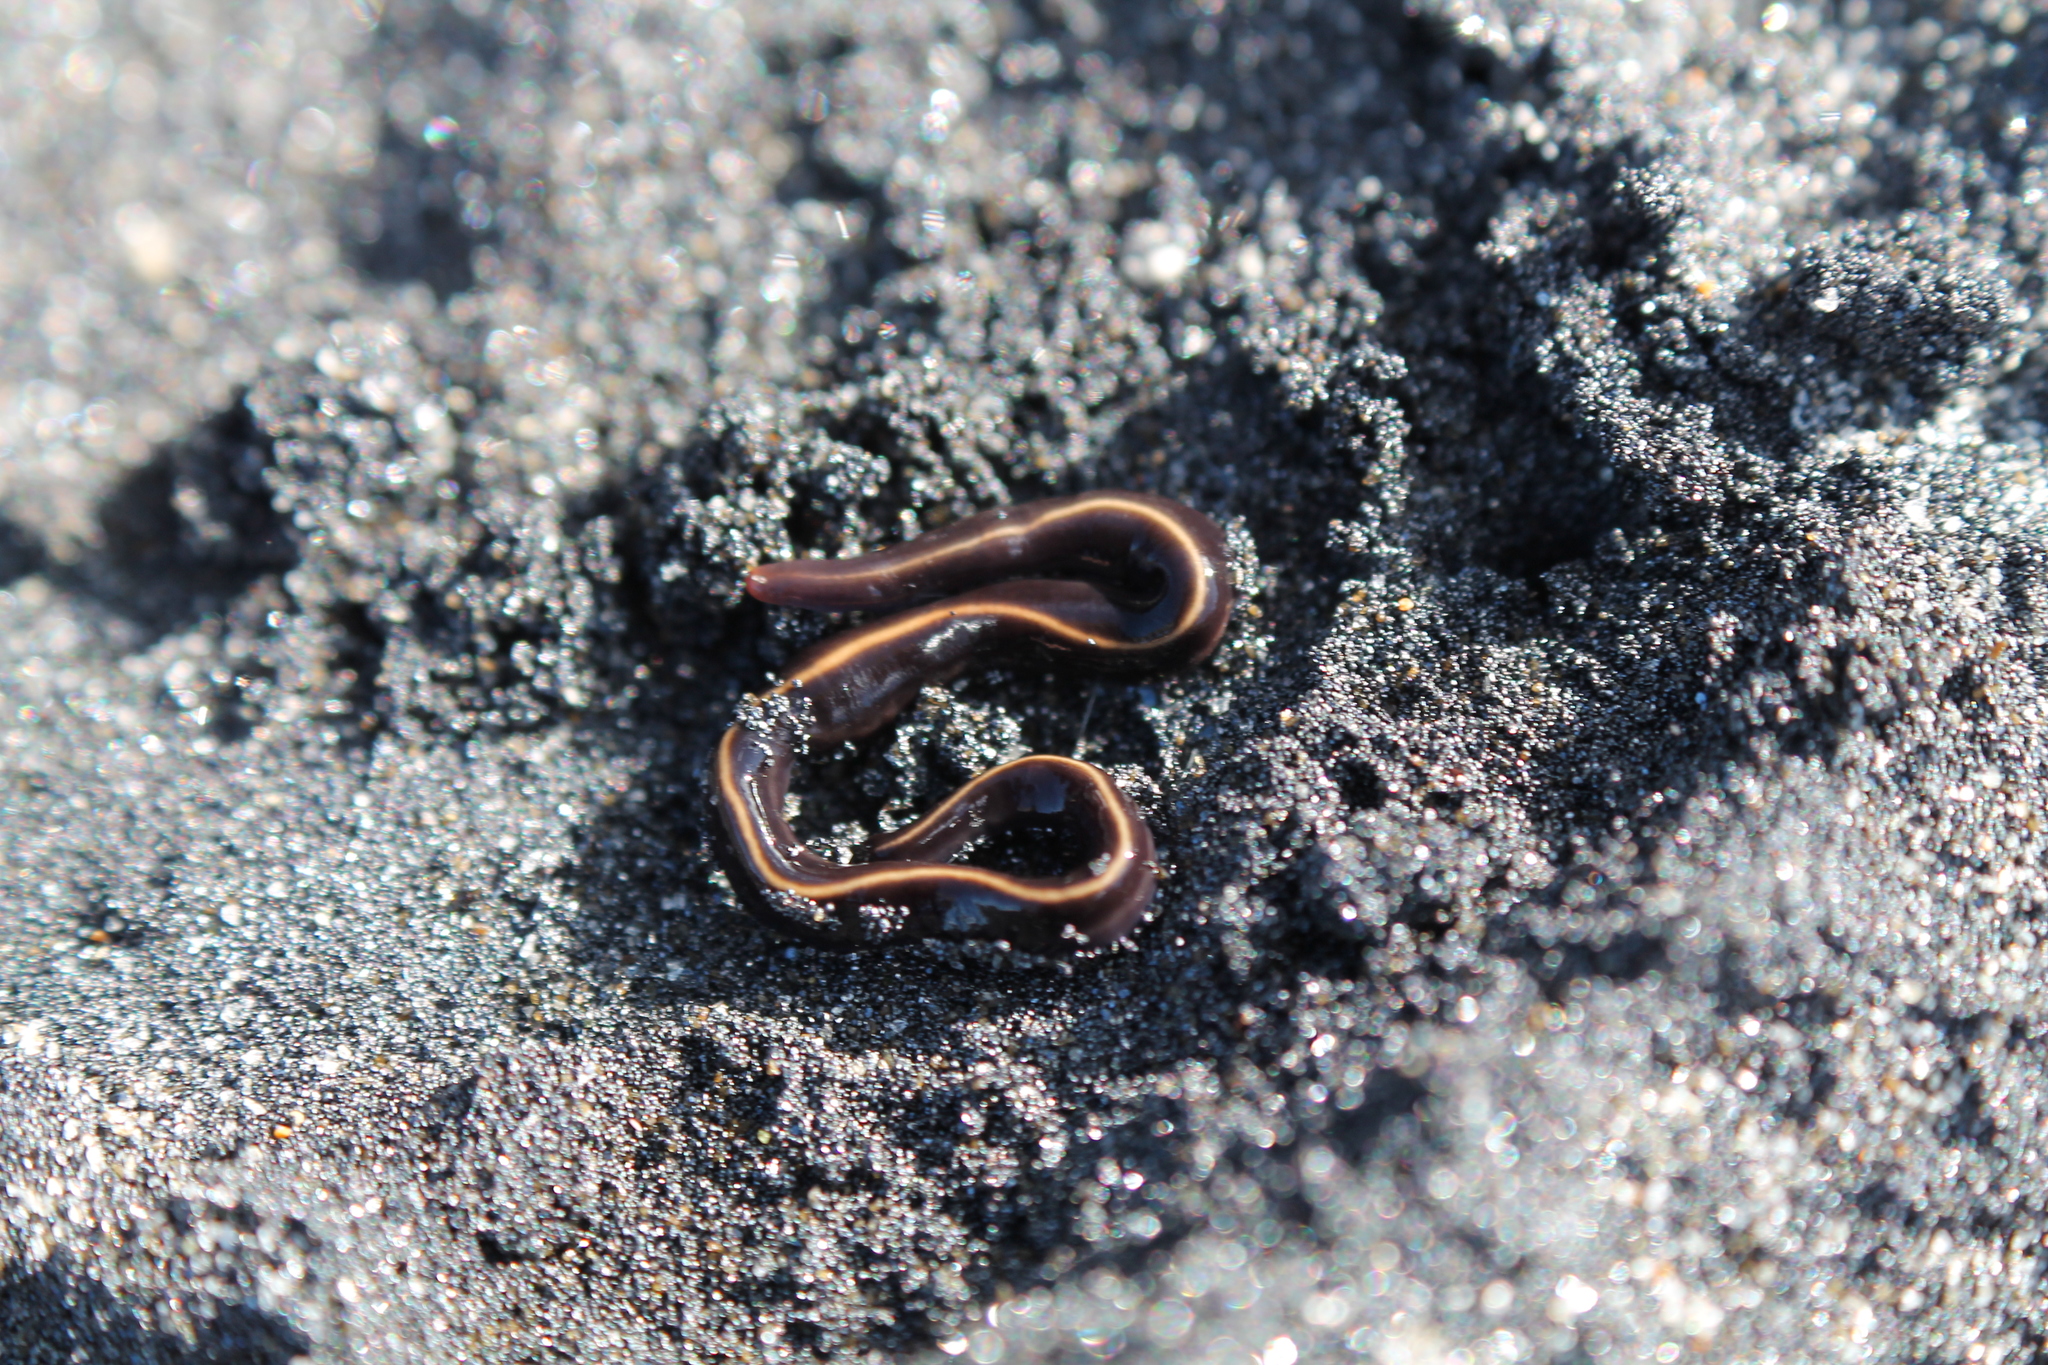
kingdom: Animalia
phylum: Platyhelminthes
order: Tricladida
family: Geoplanidae
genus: Caenoplana
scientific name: Caenoplana coerulea
